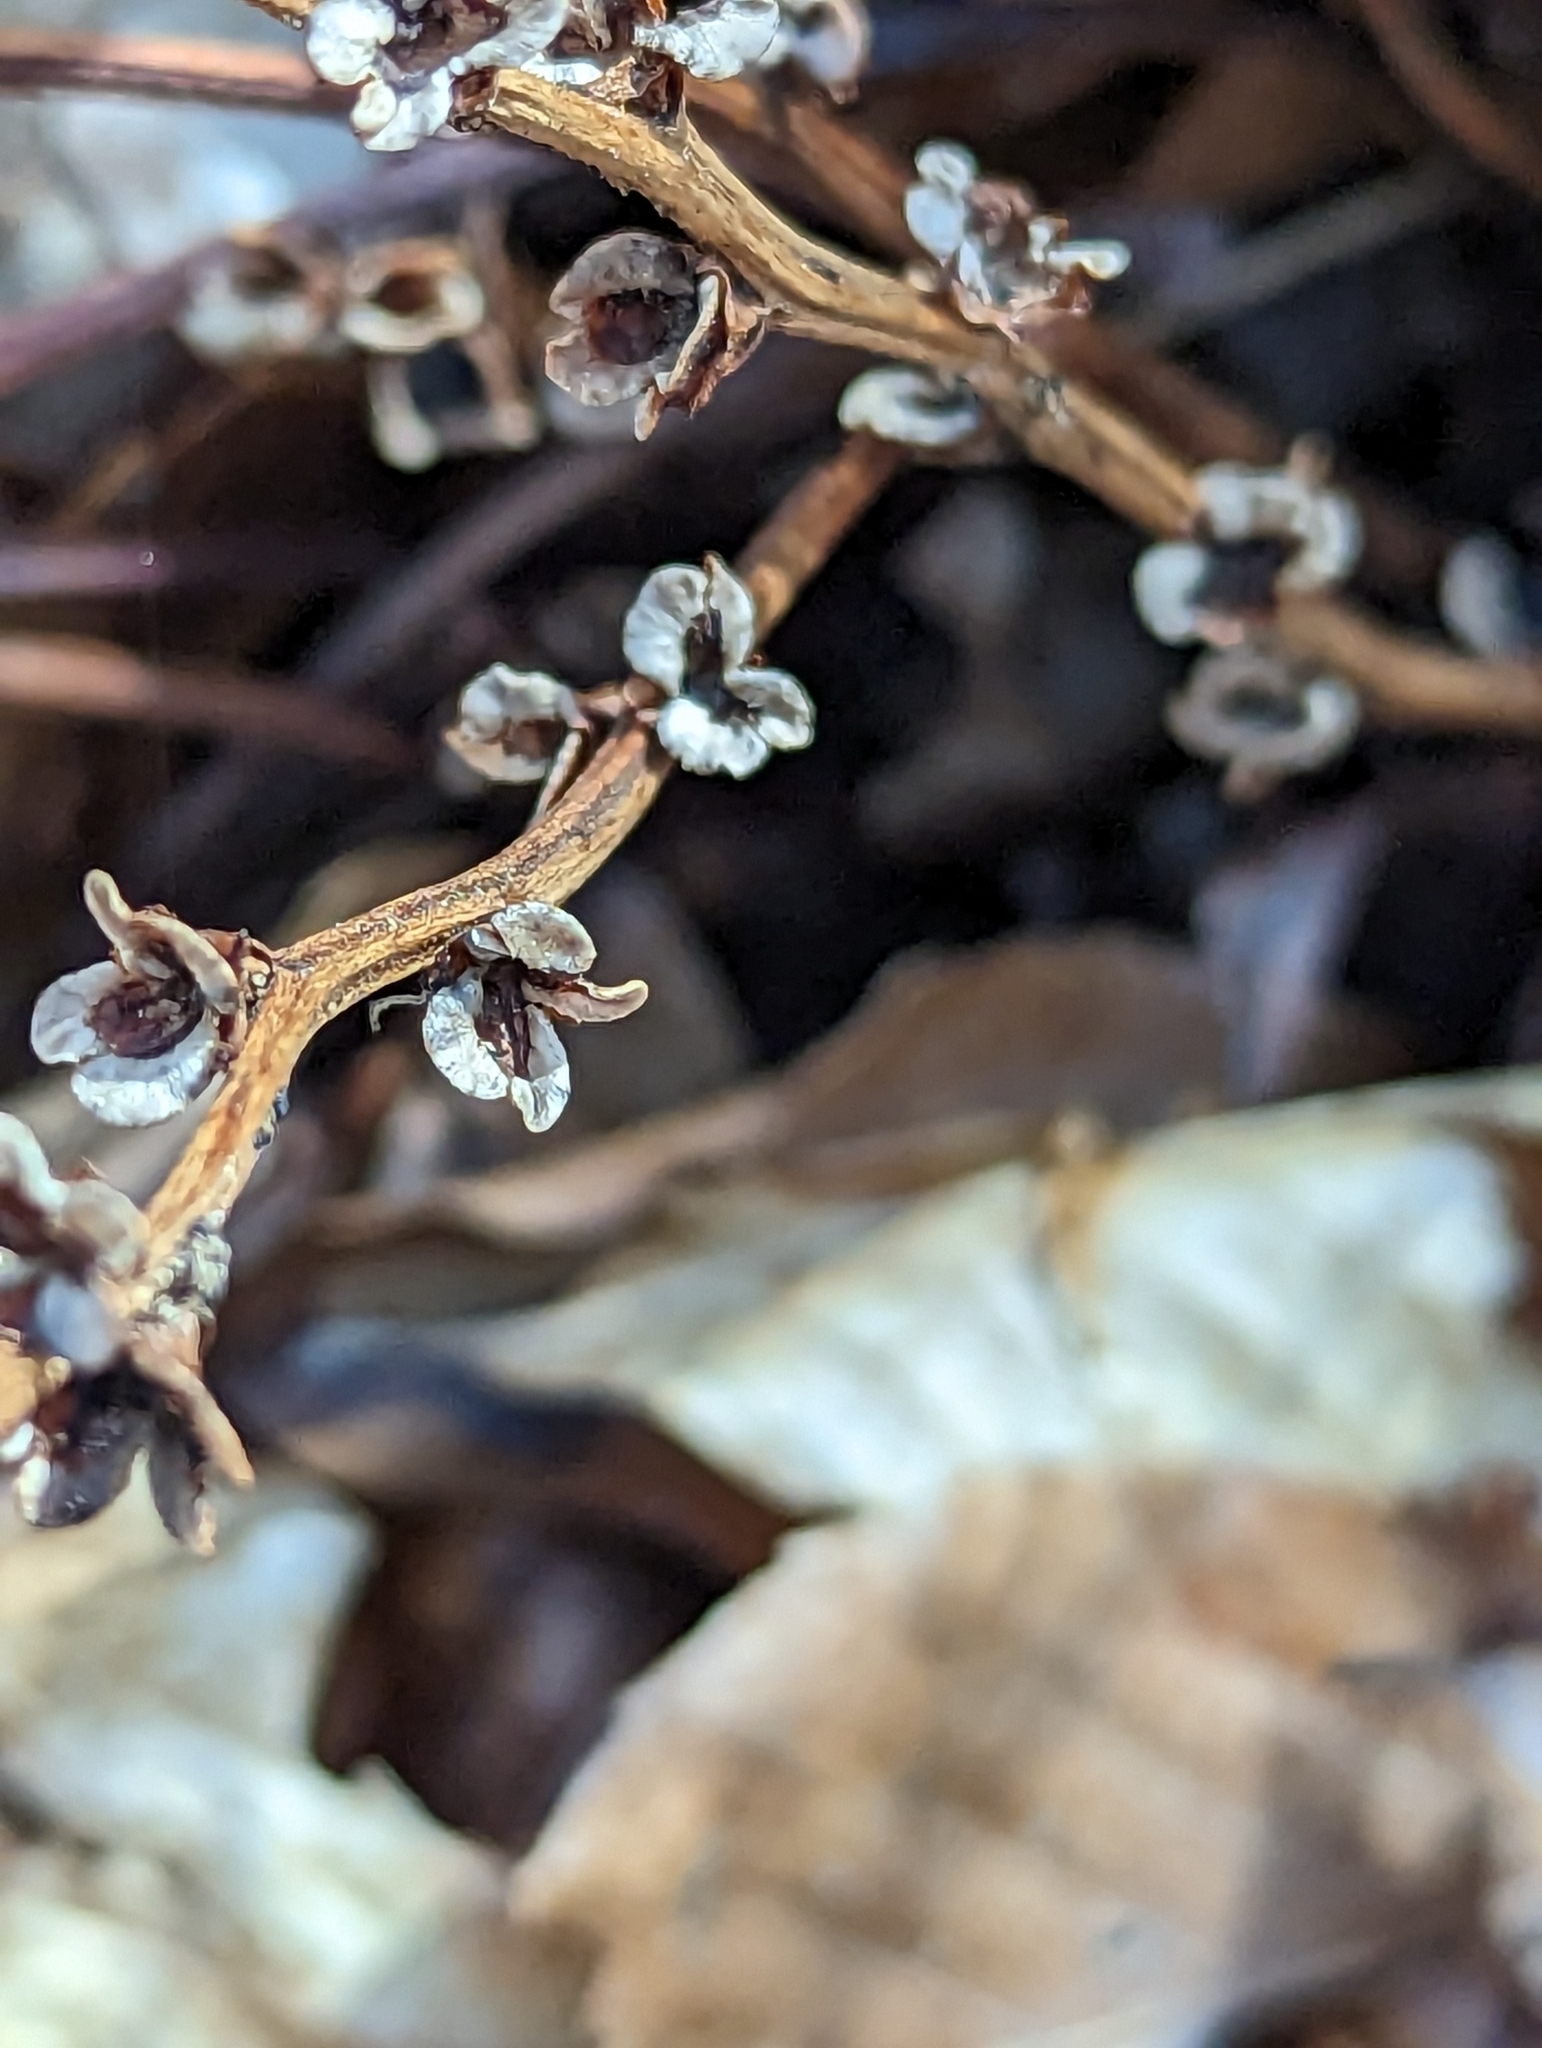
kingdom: Plantae
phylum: Tracheophyta
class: Magnoliopsida
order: Lamiales
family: Orobanchaceae
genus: Epifagus
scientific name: Epifagus virginiana
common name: Beechdrops
